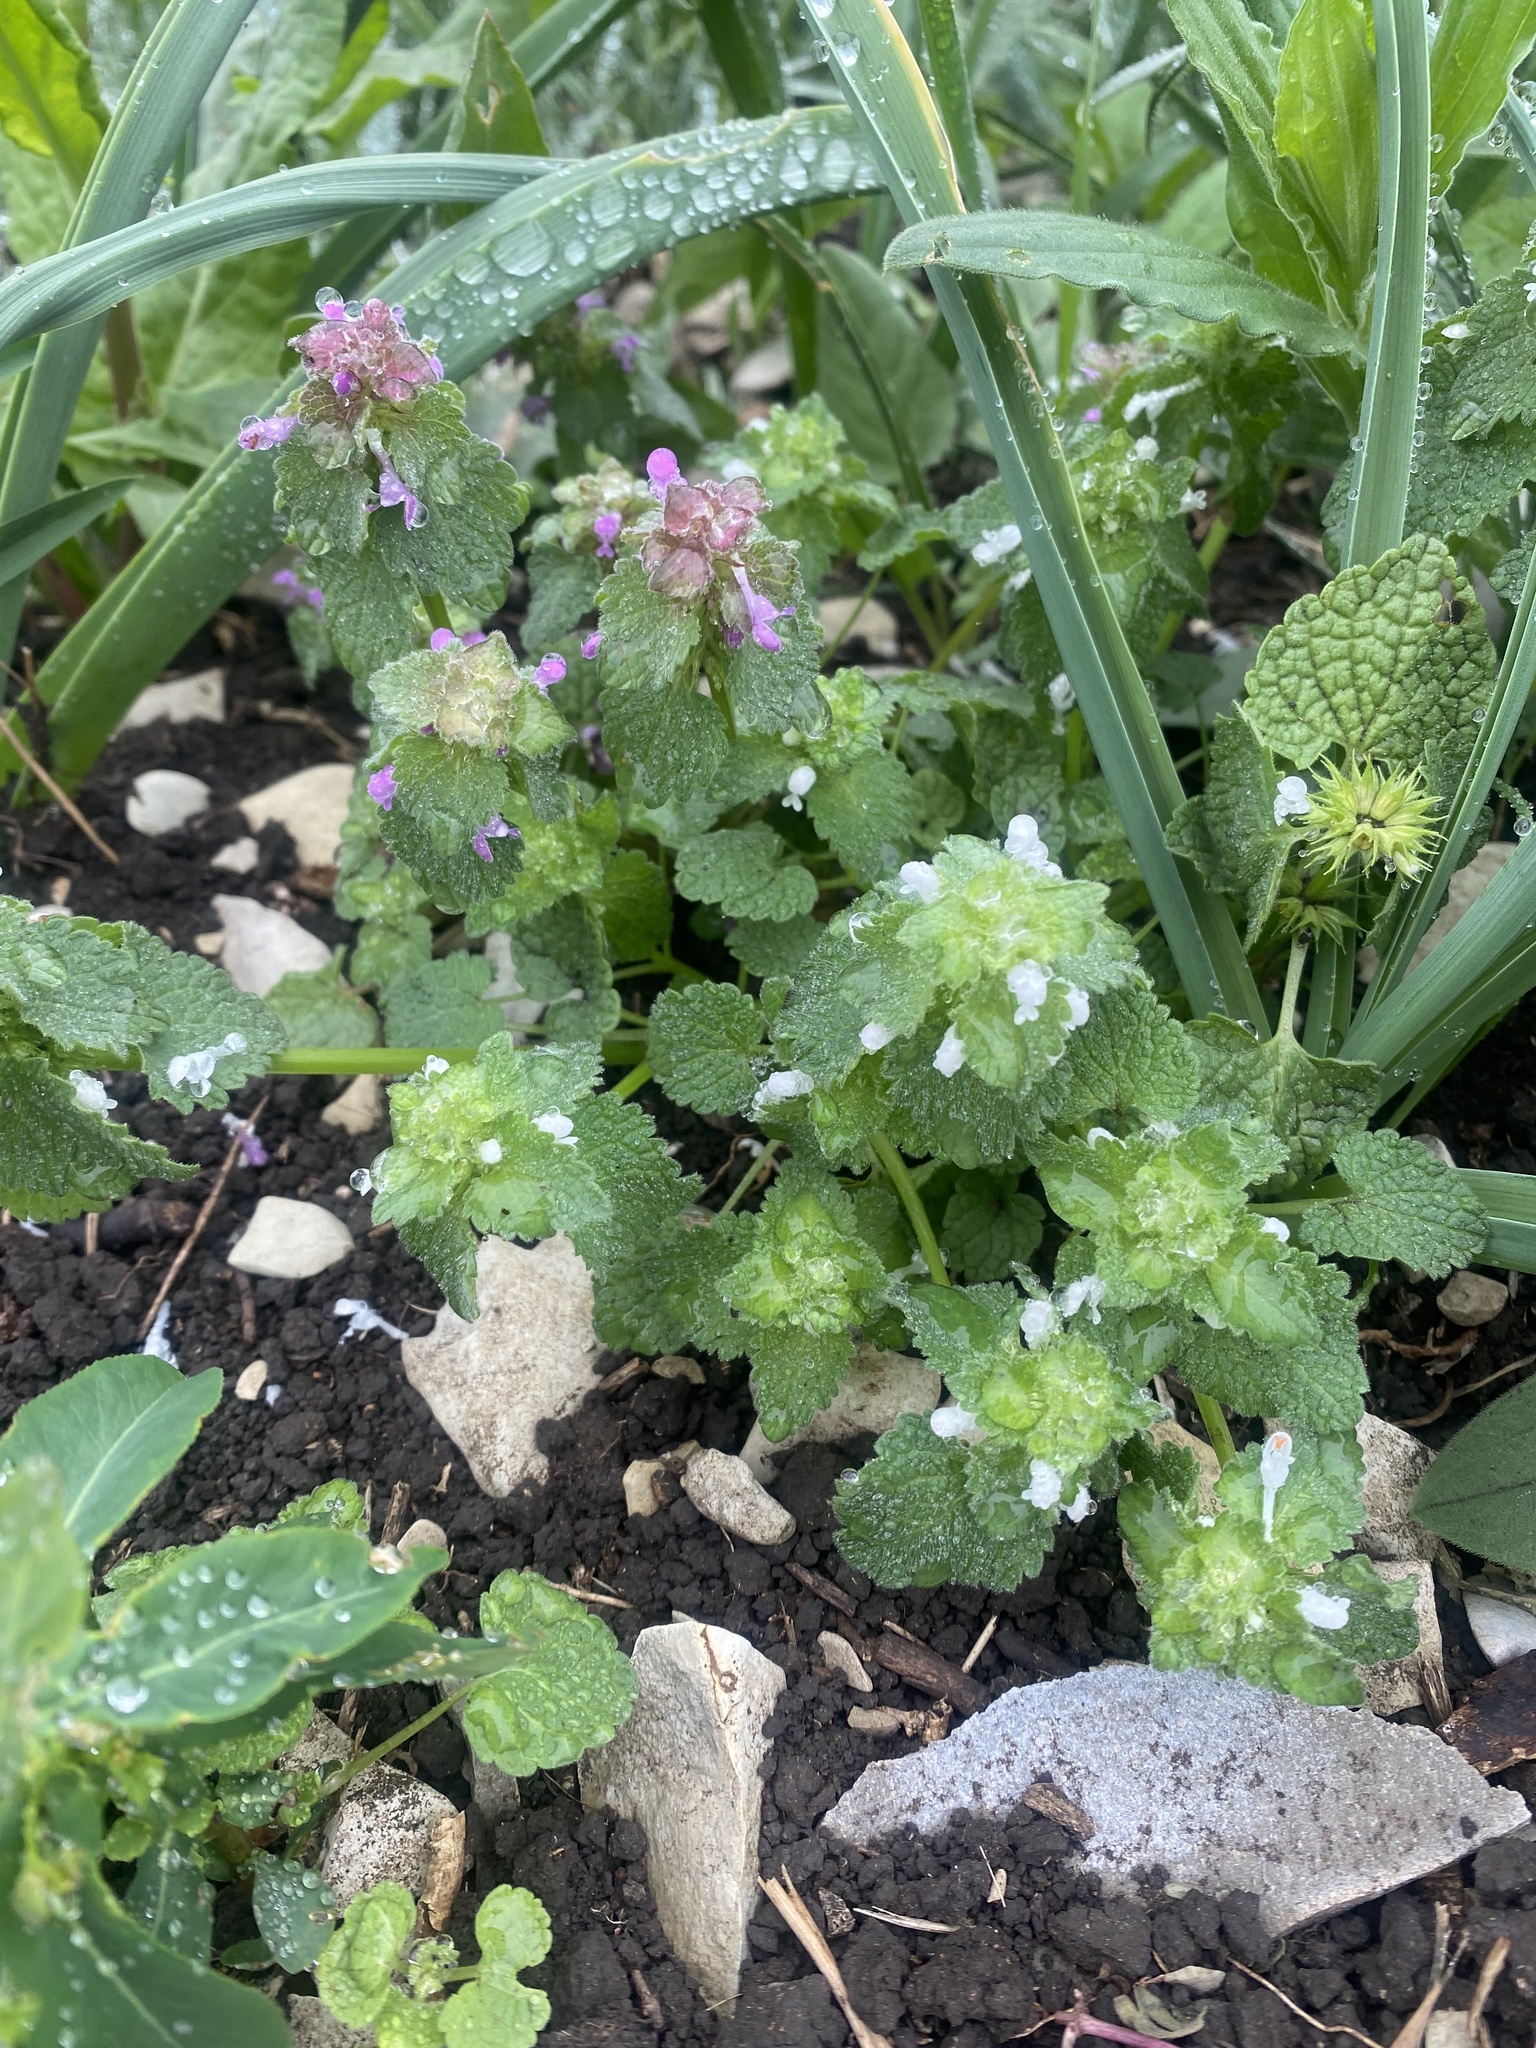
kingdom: Plantae
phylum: Tracheophyta
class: Magnoliopsida
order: Lamiales
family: Lamiaceae
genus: Lamium
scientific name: Lamium purpureum
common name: Red dead-nettle
